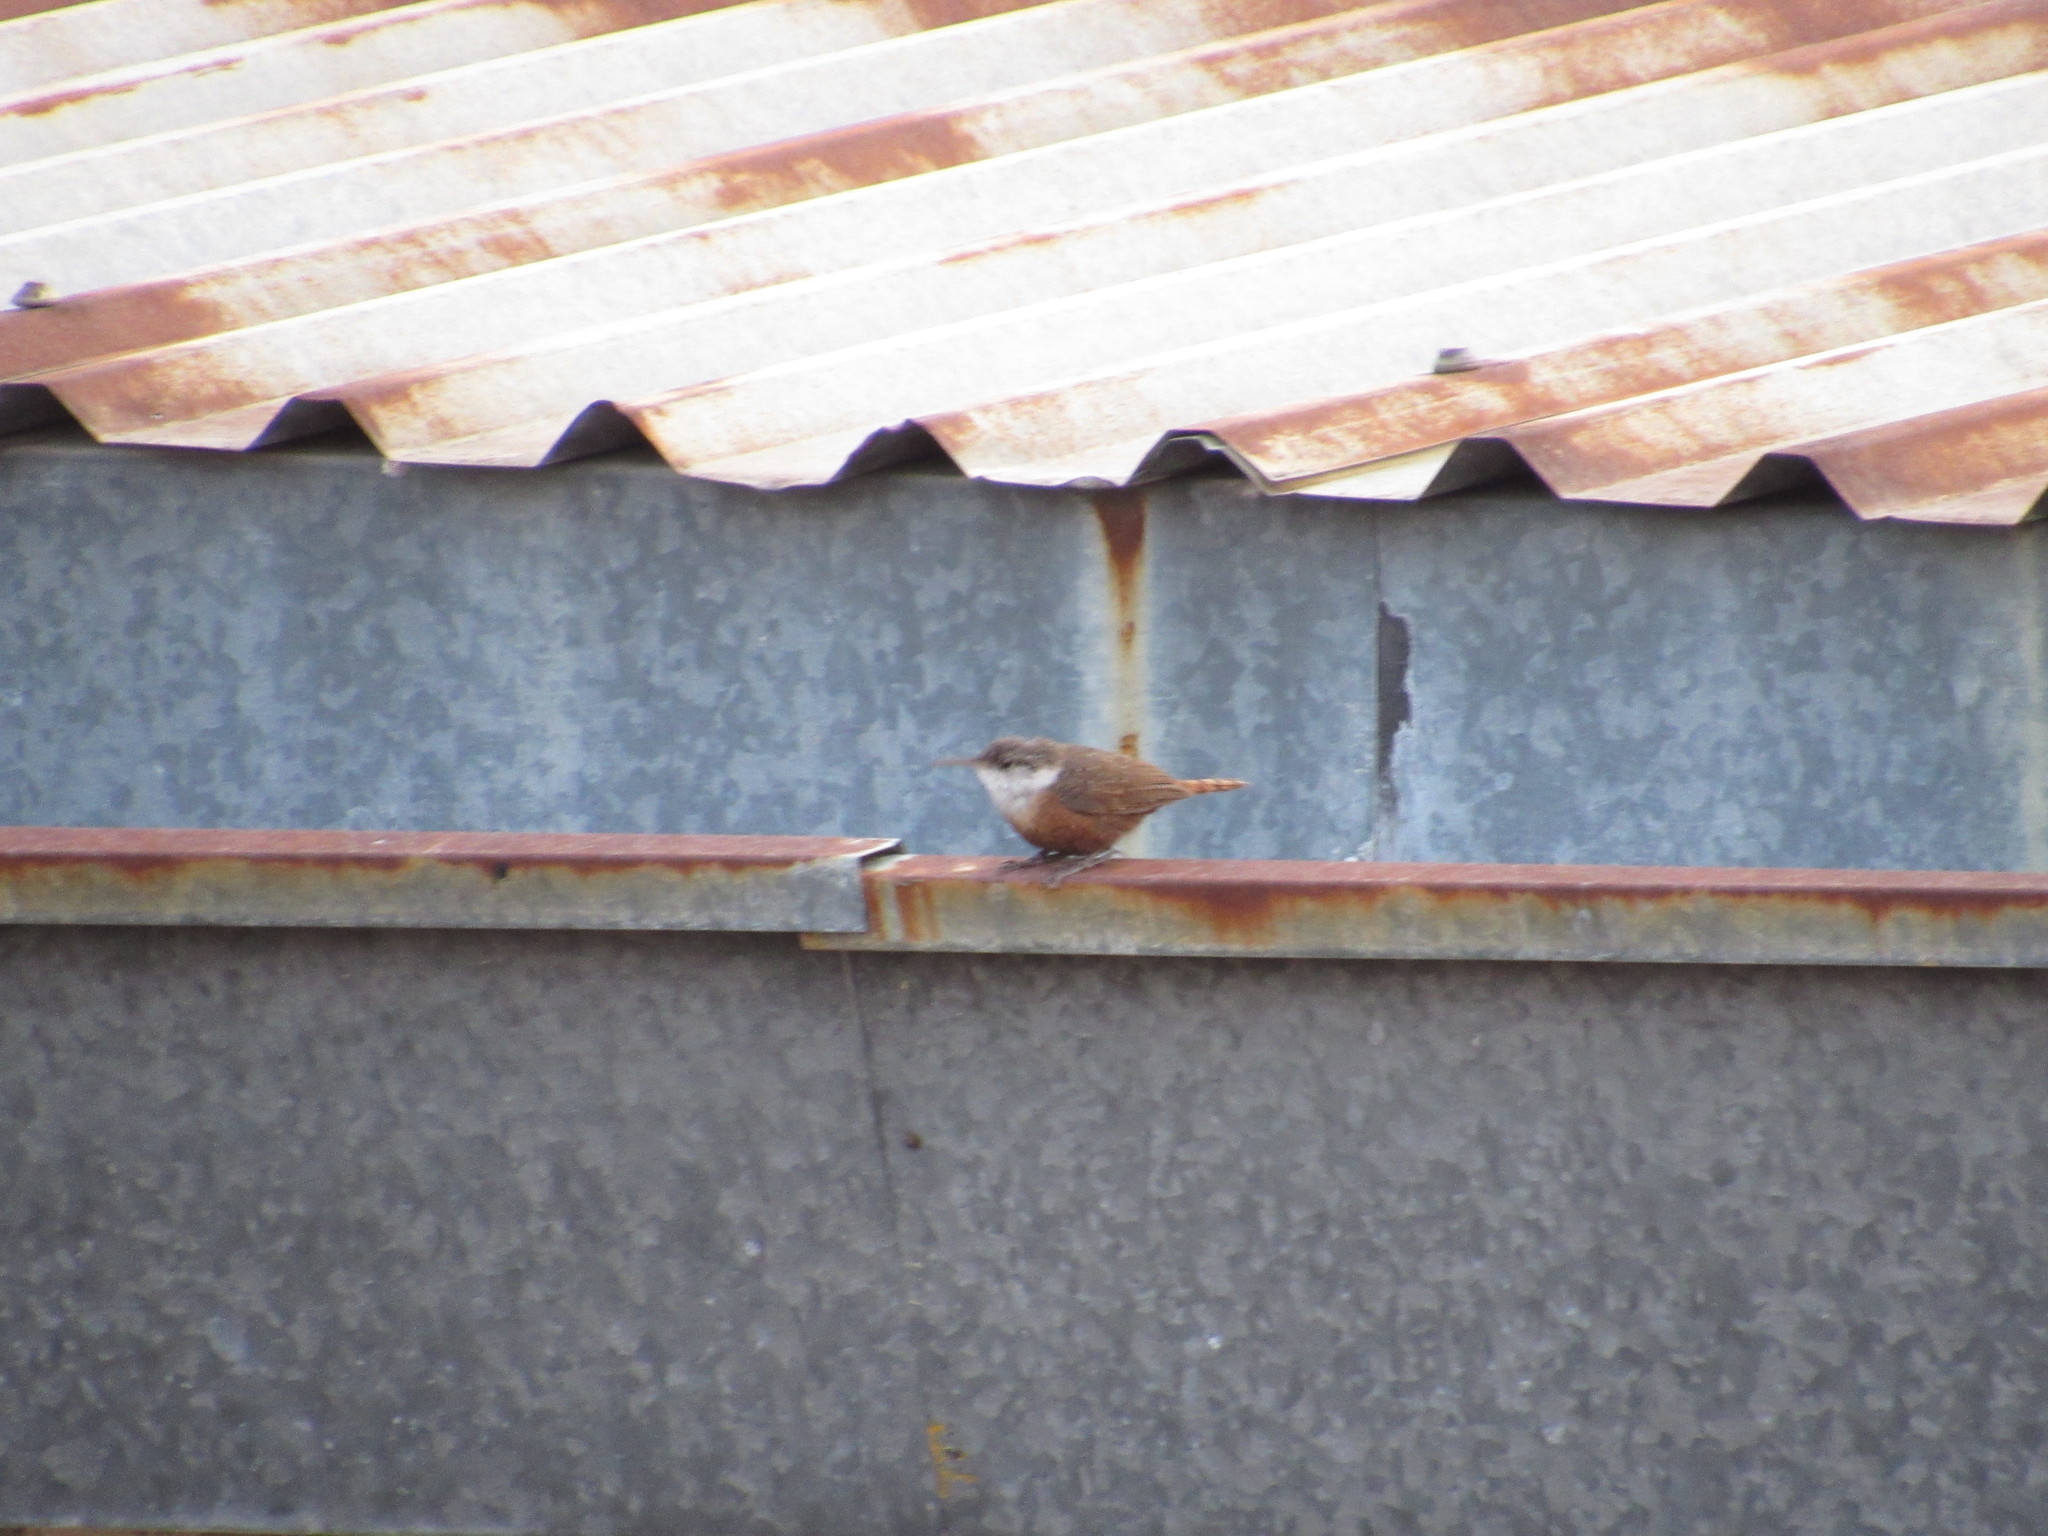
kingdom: Animalia
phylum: Chordata
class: Aves
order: Passeriformes
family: Troglodytidae
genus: Catherpes
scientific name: Catherpes mexicanus
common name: Canyon wren
